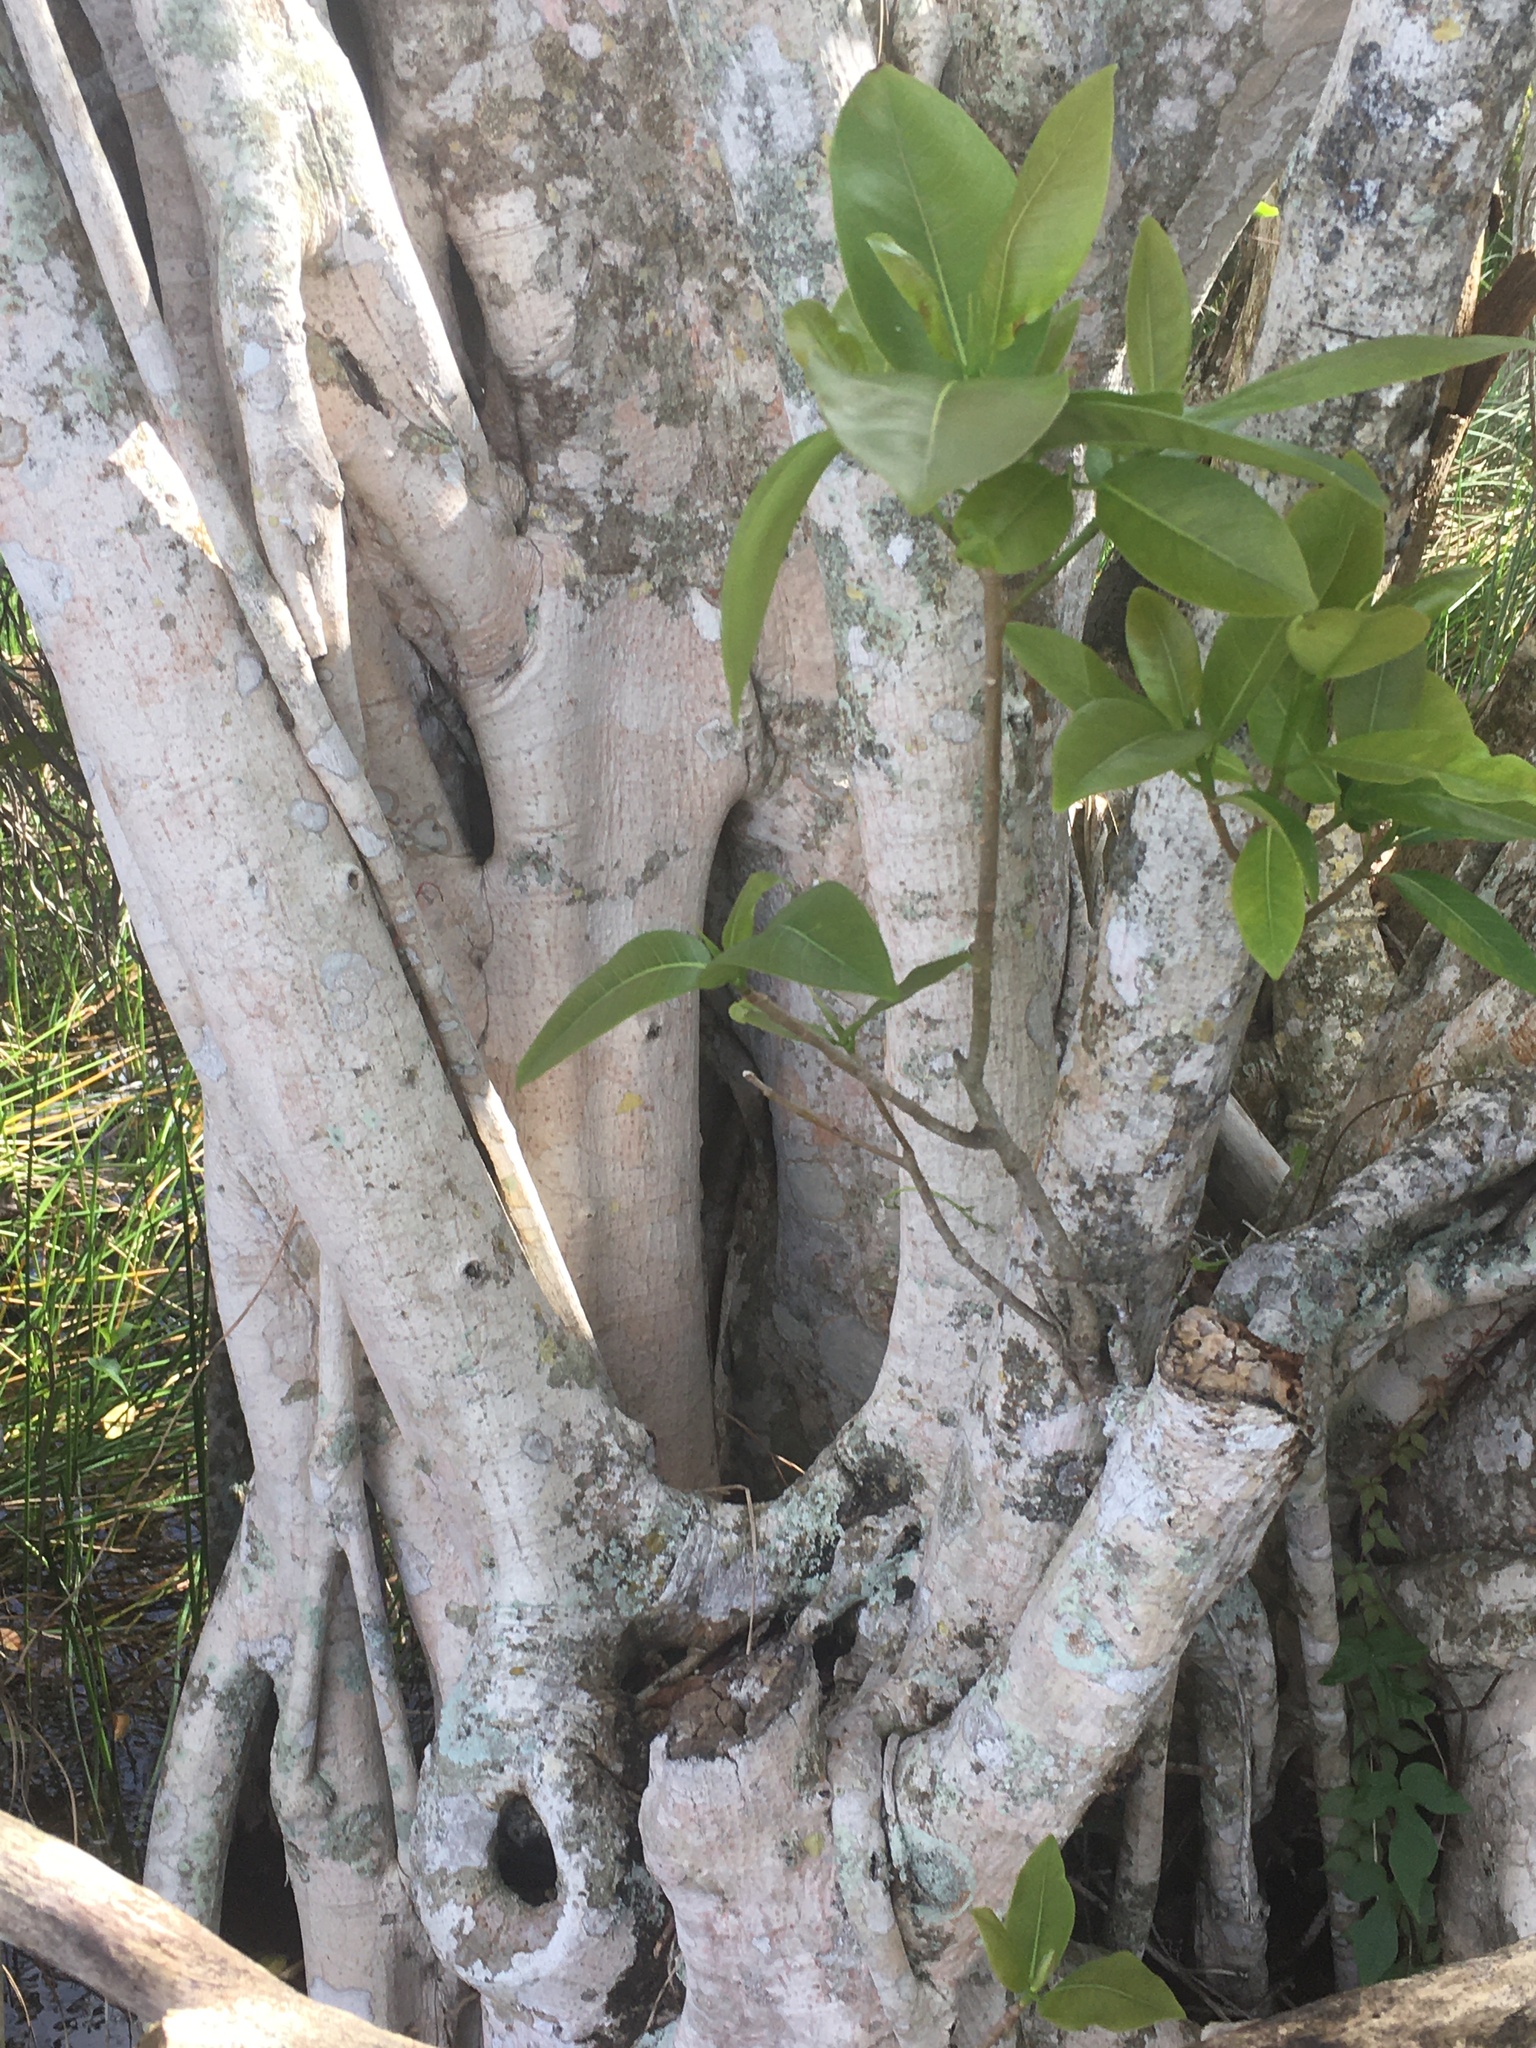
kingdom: Plantae
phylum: Tracheophyta
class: Magnoliopsida
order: Rosales
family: Moraceae
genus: Ficus
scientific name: Ficus aurea
